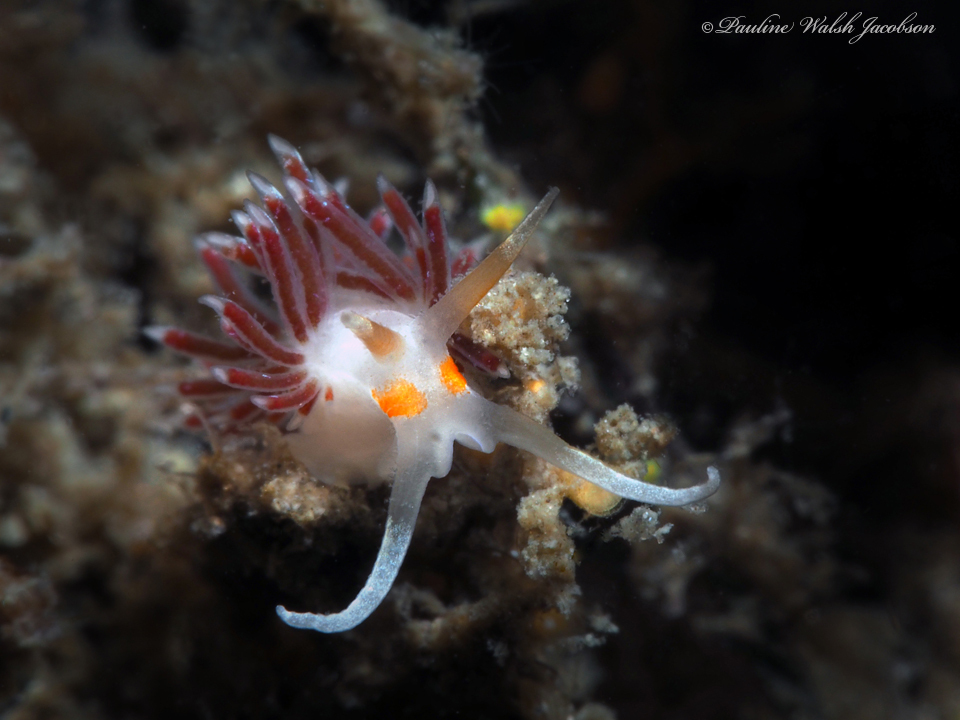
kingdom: Animalia
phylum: Mollusca
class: Gastropoda
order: Nudibranchia
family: Facelinidae
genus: Cratena
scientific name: Cratena minor
